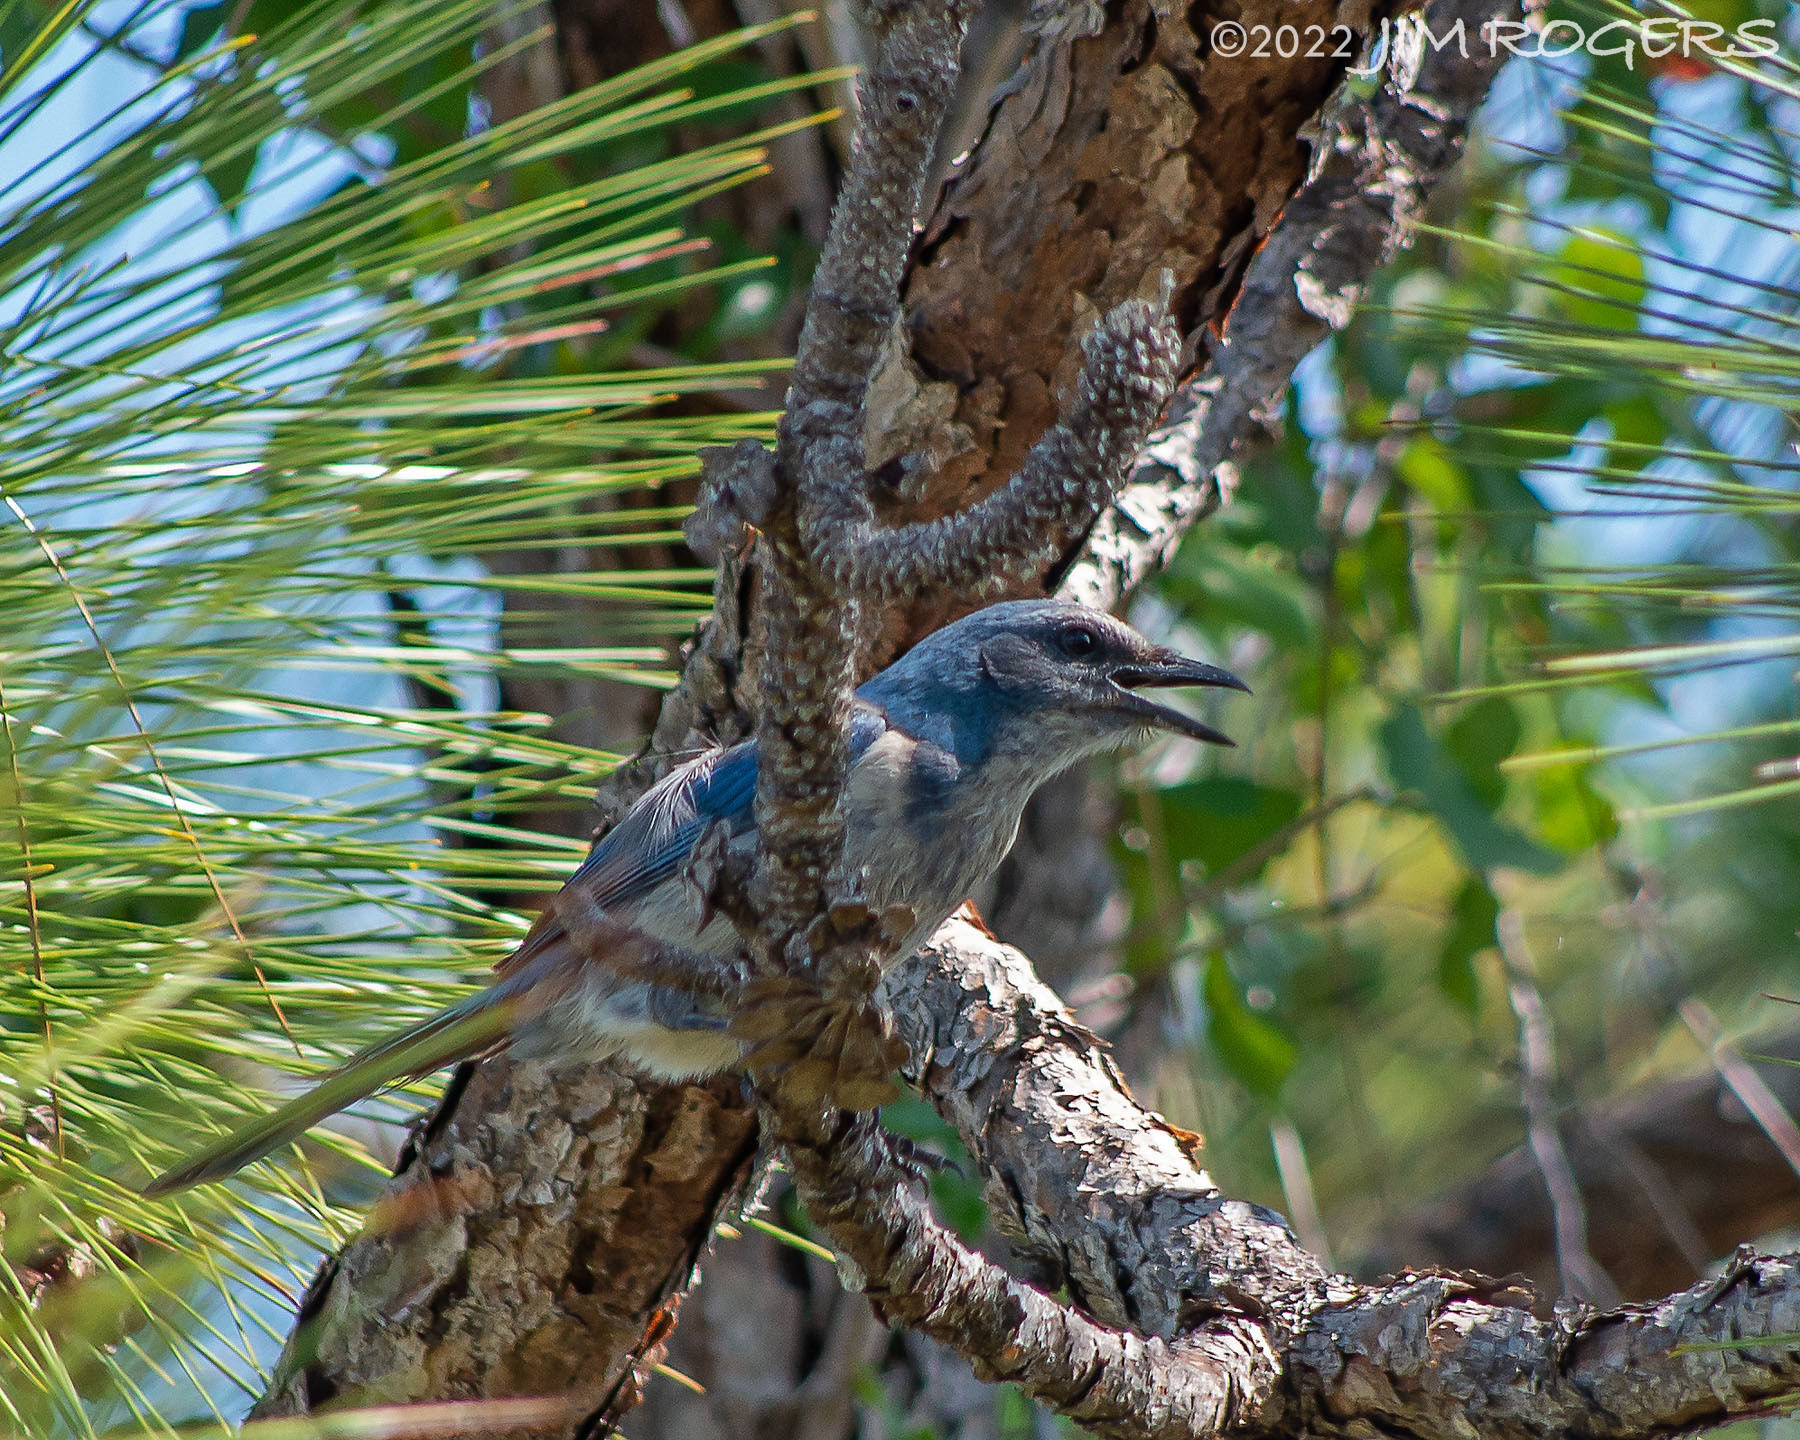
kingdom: Animalia
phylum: Chordata
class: Aves
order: Passeriformes
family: Corvidae
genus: Aphelocoma
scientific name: Aphelocoma coerulescens
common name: Florida scrub jay
